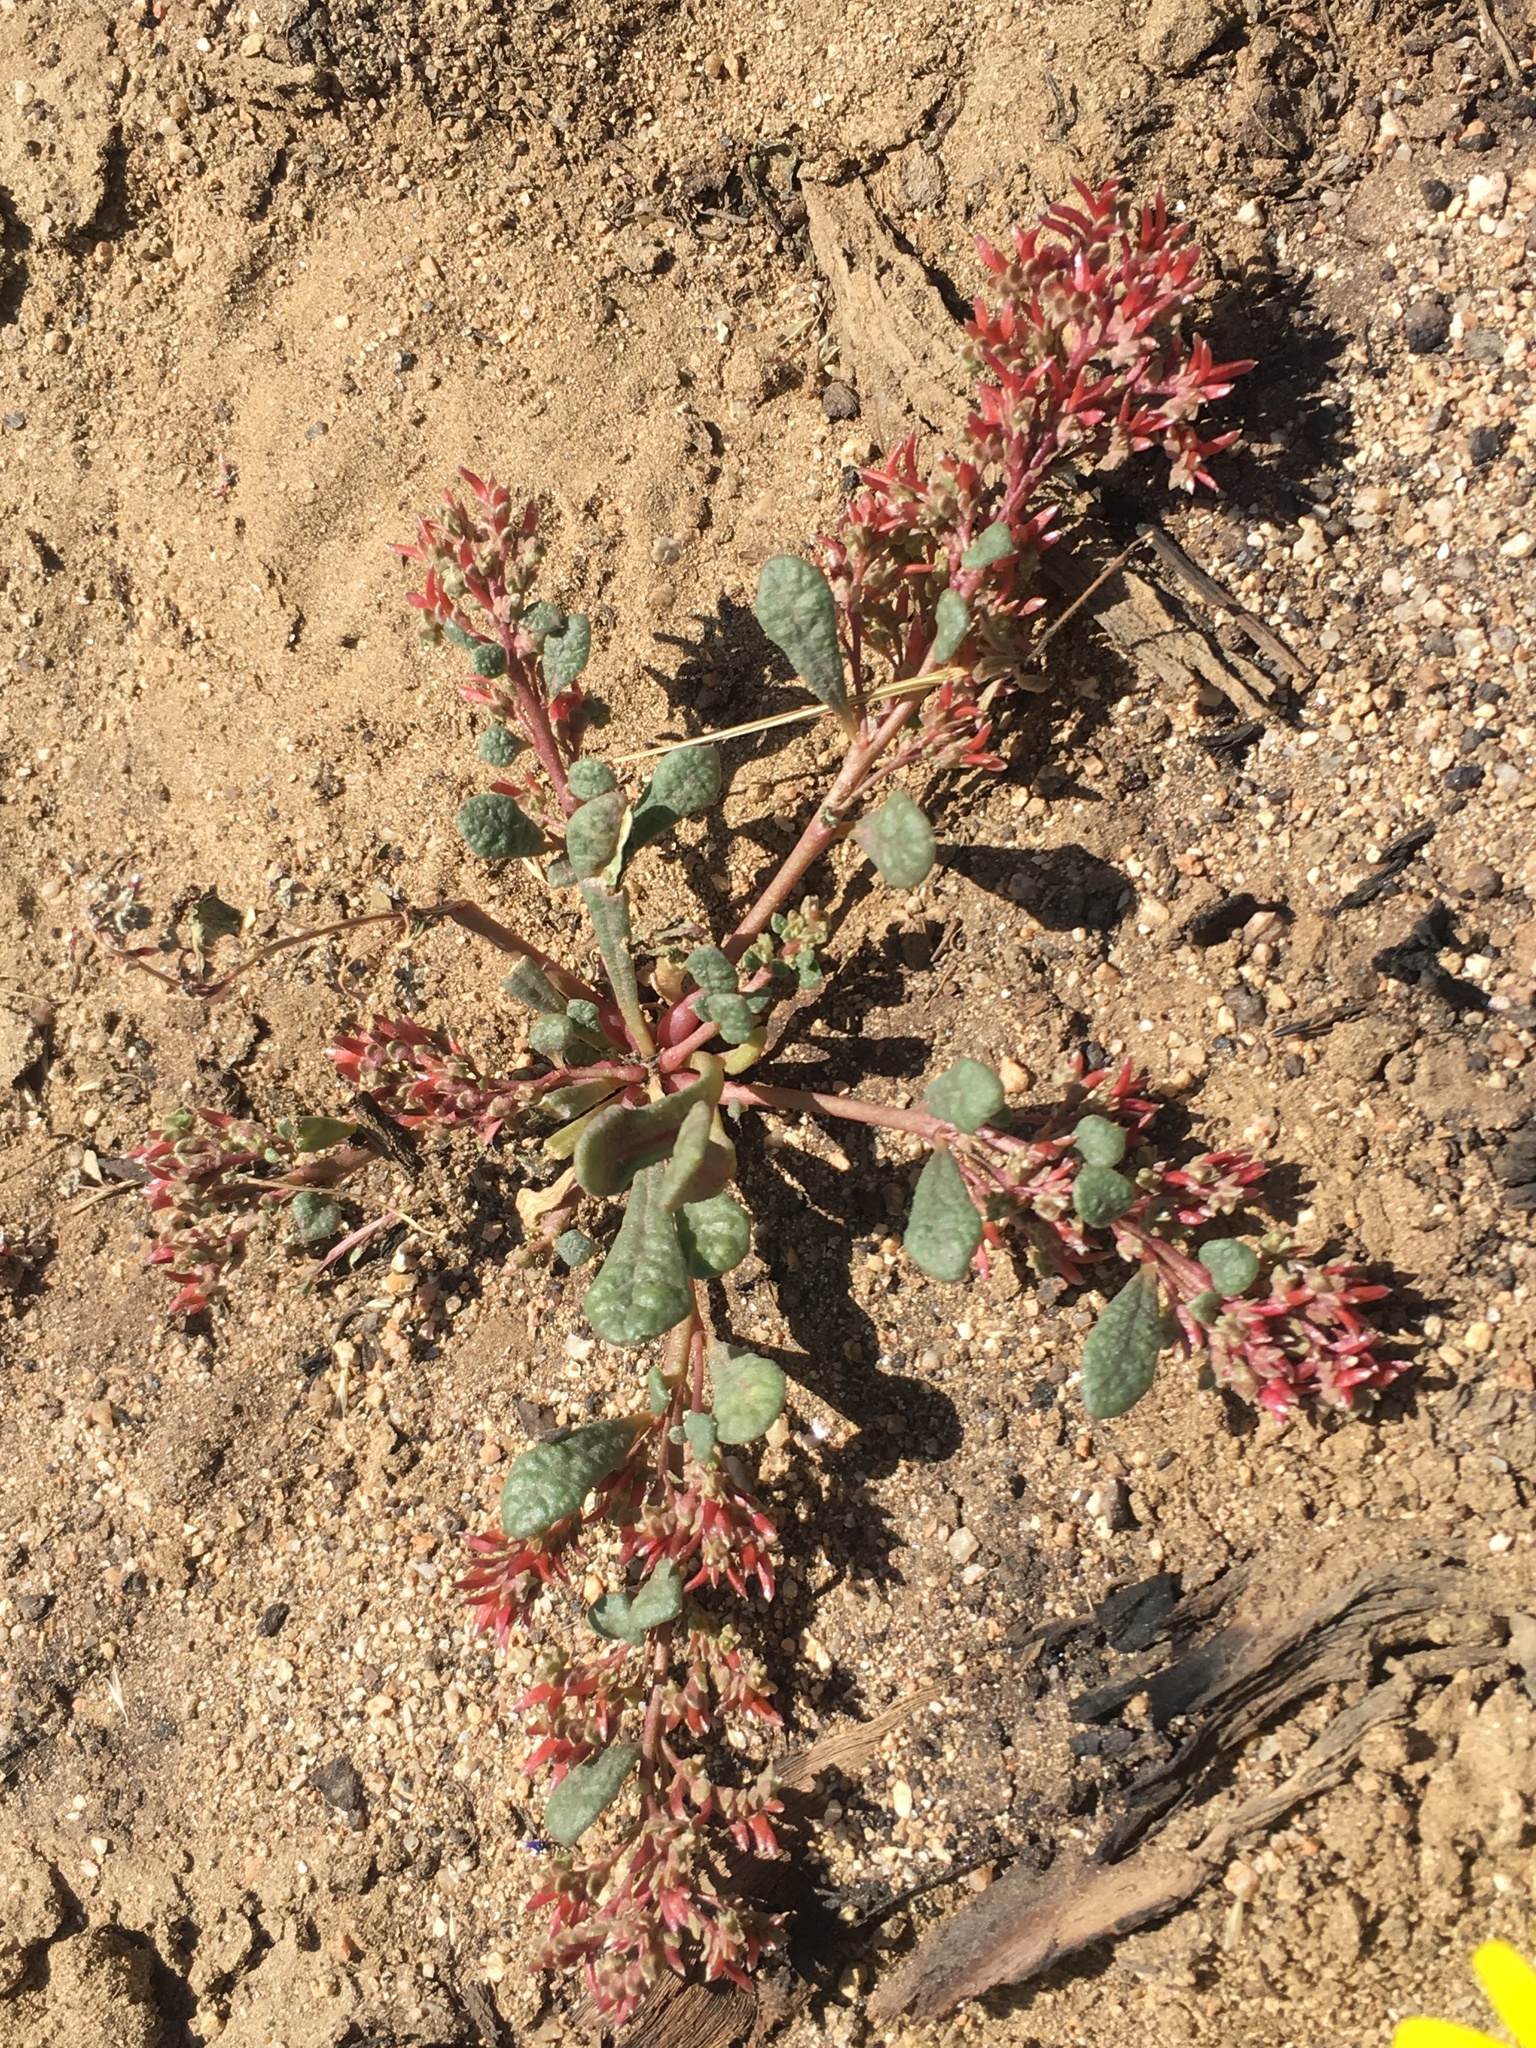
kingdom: Plantae
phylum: Tracheophyta
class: Magnoliopsida
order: Caryophyllales
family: Montiaceae
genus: Calyptridium
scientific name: Calyptridium monandrum
